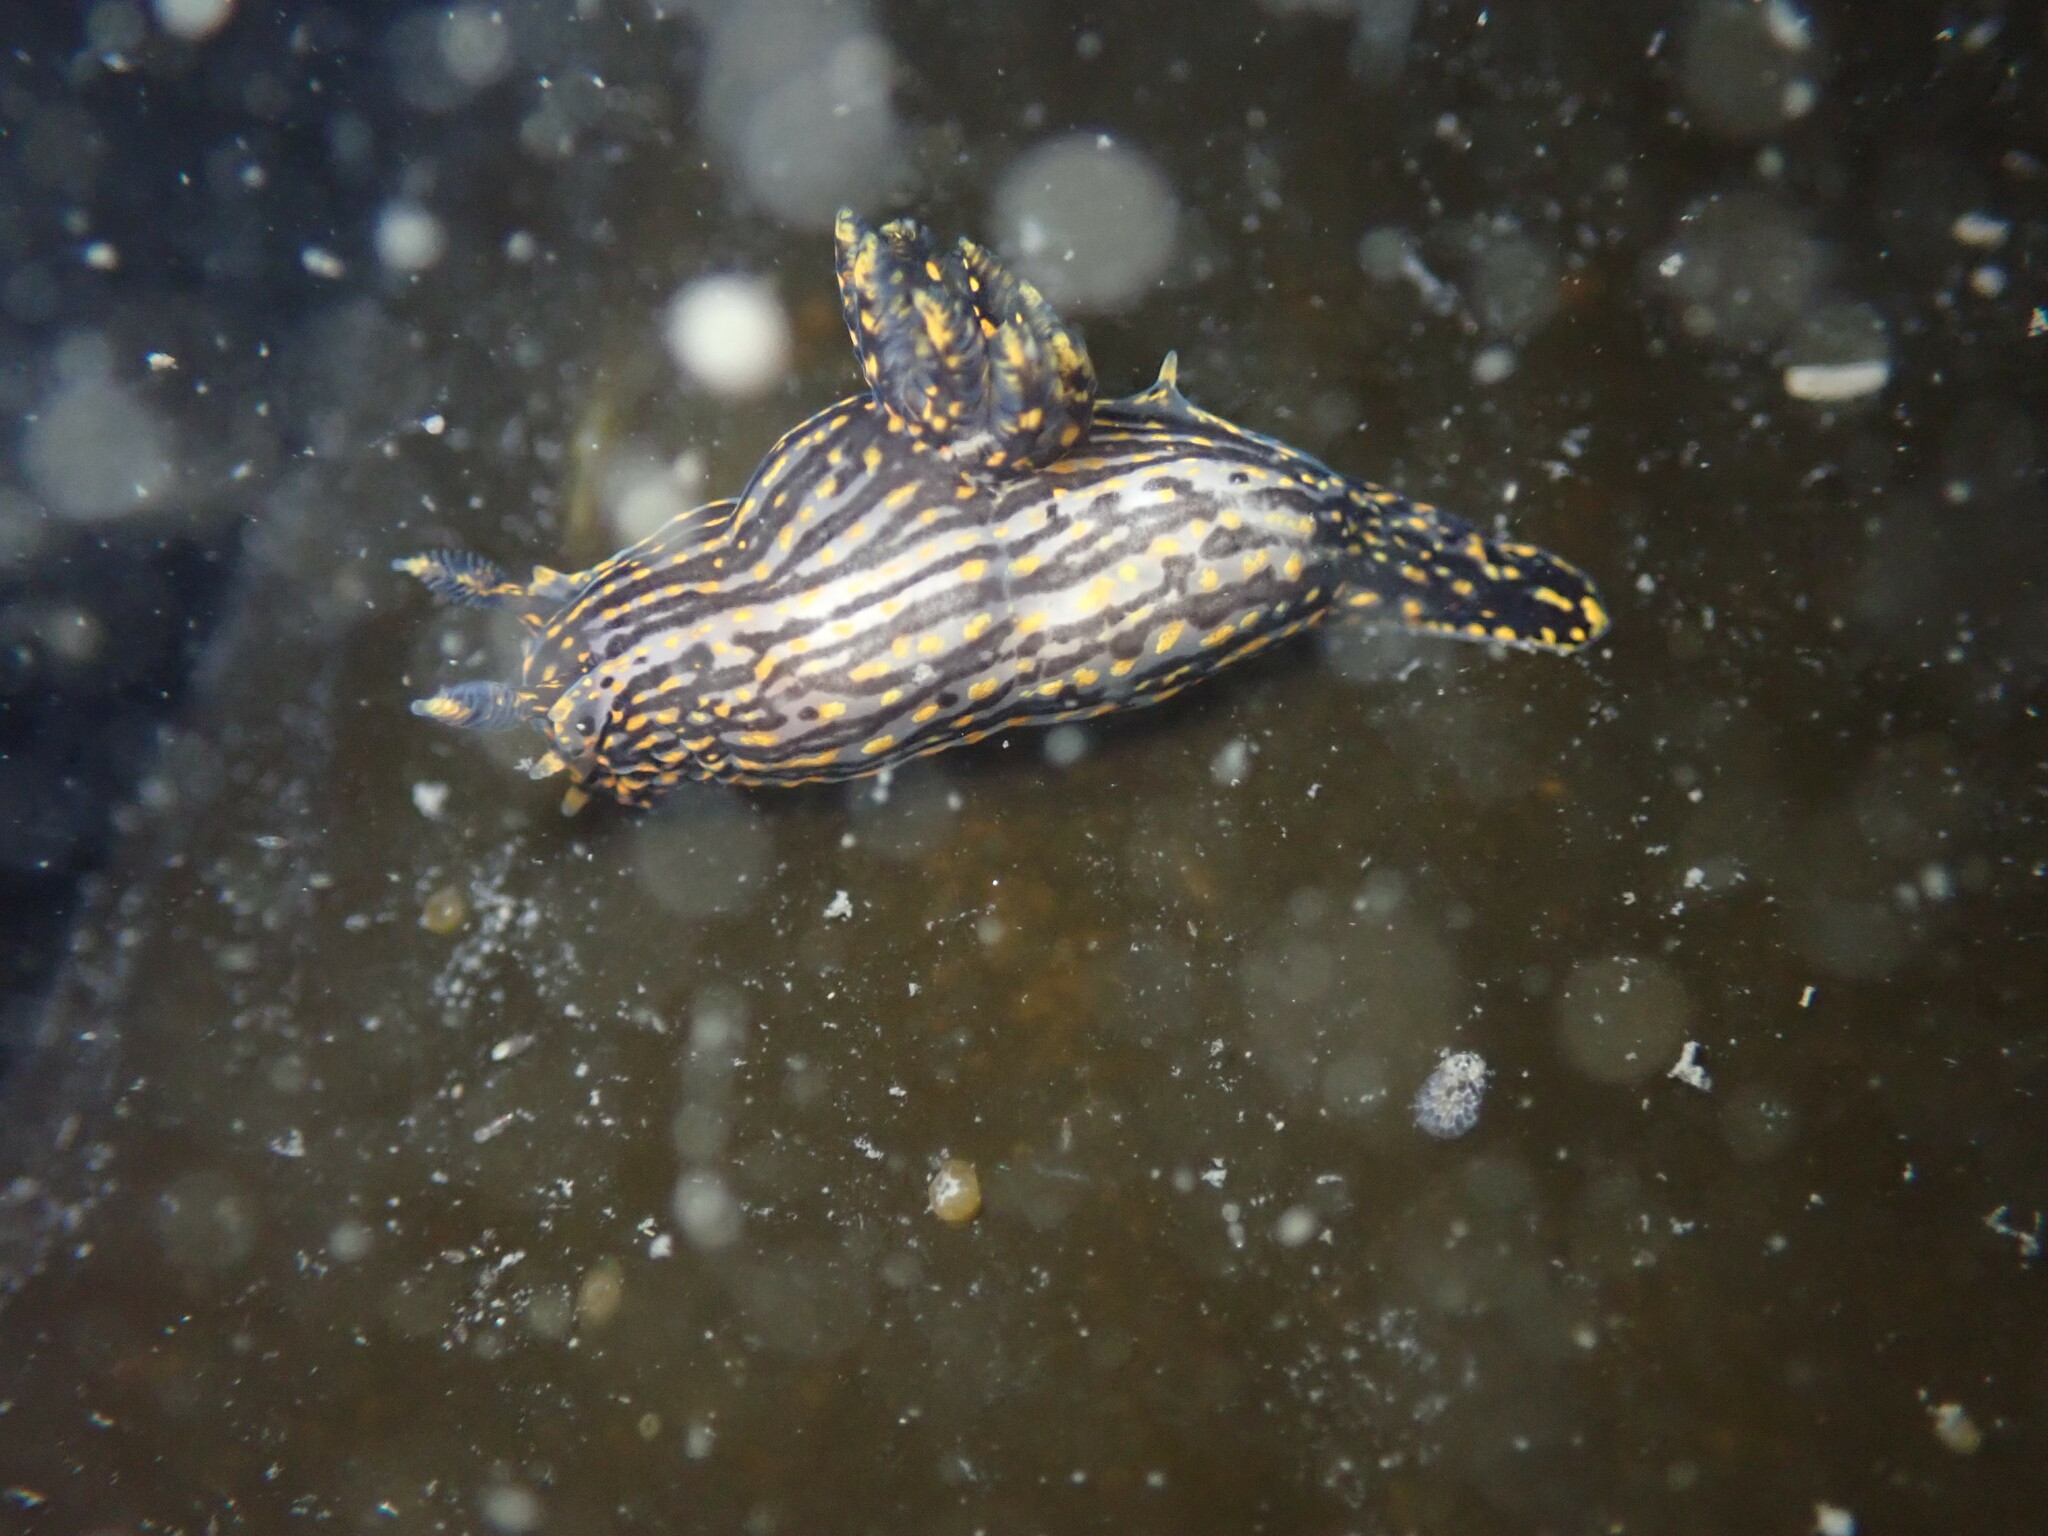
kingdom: Animalia
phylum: Mollusca
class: Gastropoda
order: Nudibranchia
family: Polyceridae
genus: Polycera
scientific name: Polycera atra
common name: Orange-spike polycera
